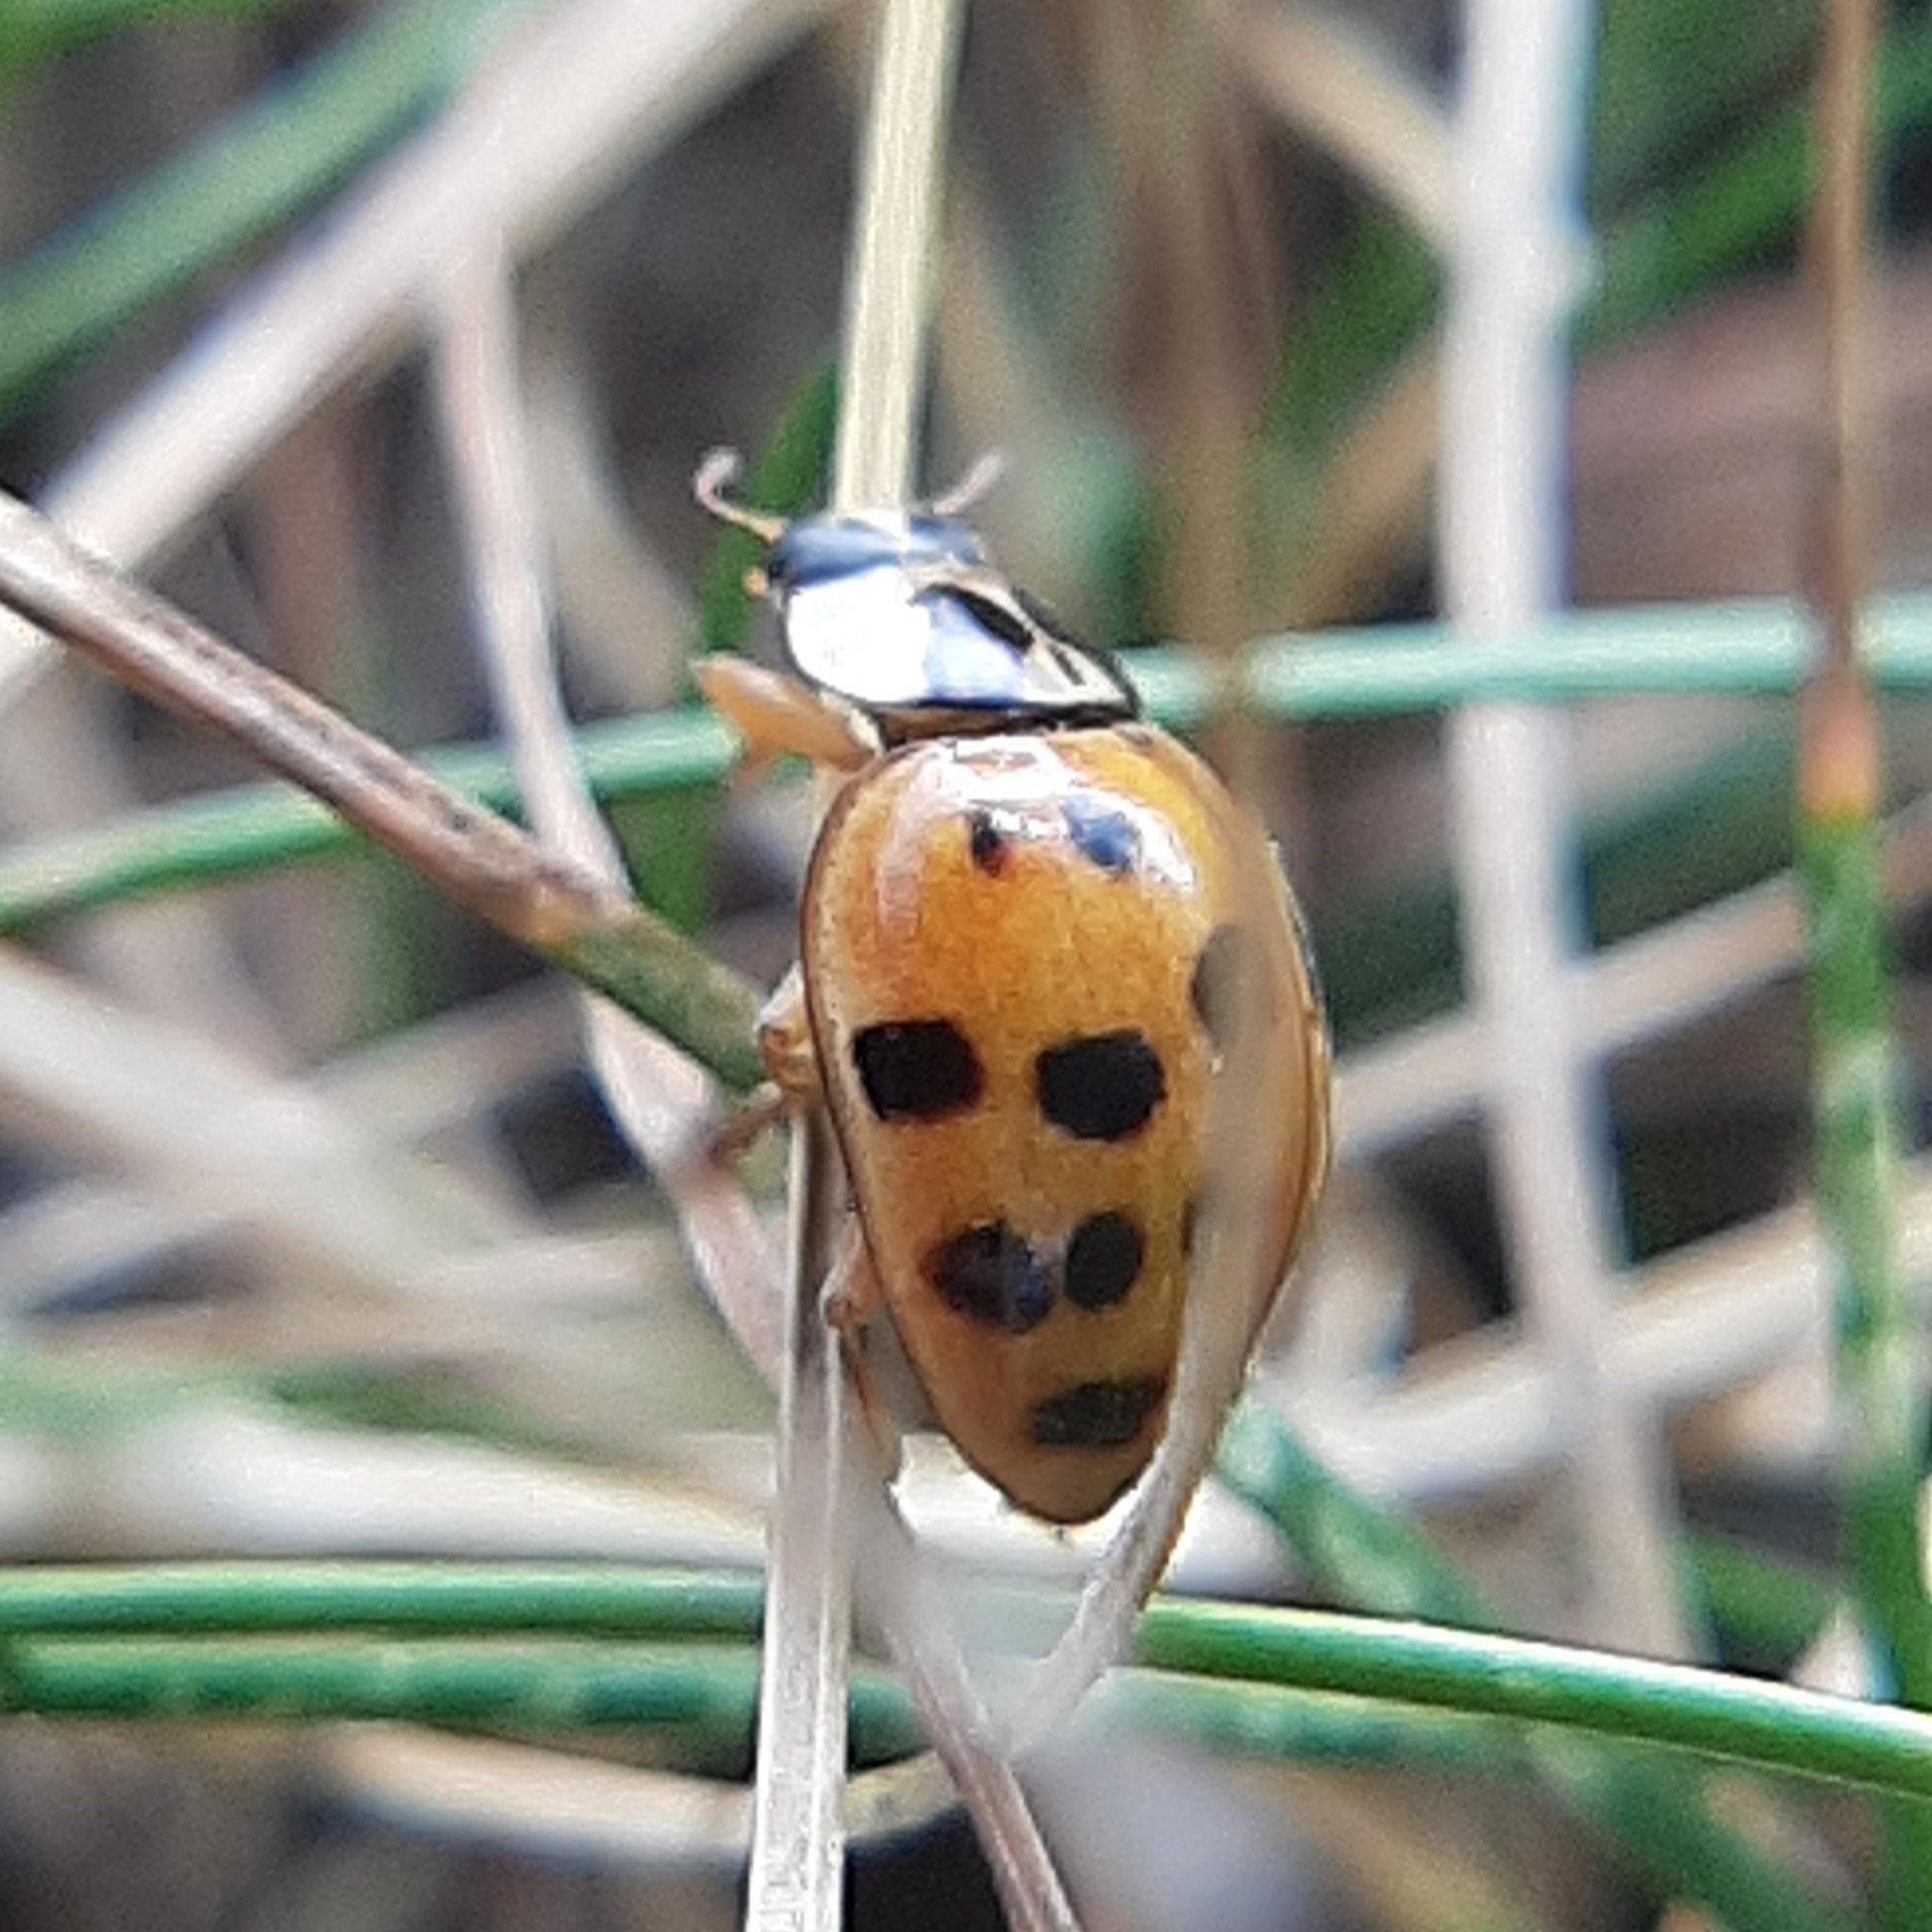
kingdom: Animalia
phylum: Arthropoda
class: Insecta
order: Coleoptera
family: Coccinellidae
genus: Harmonia
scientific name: Harmonia axyridis
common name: Harlequin ladybird
